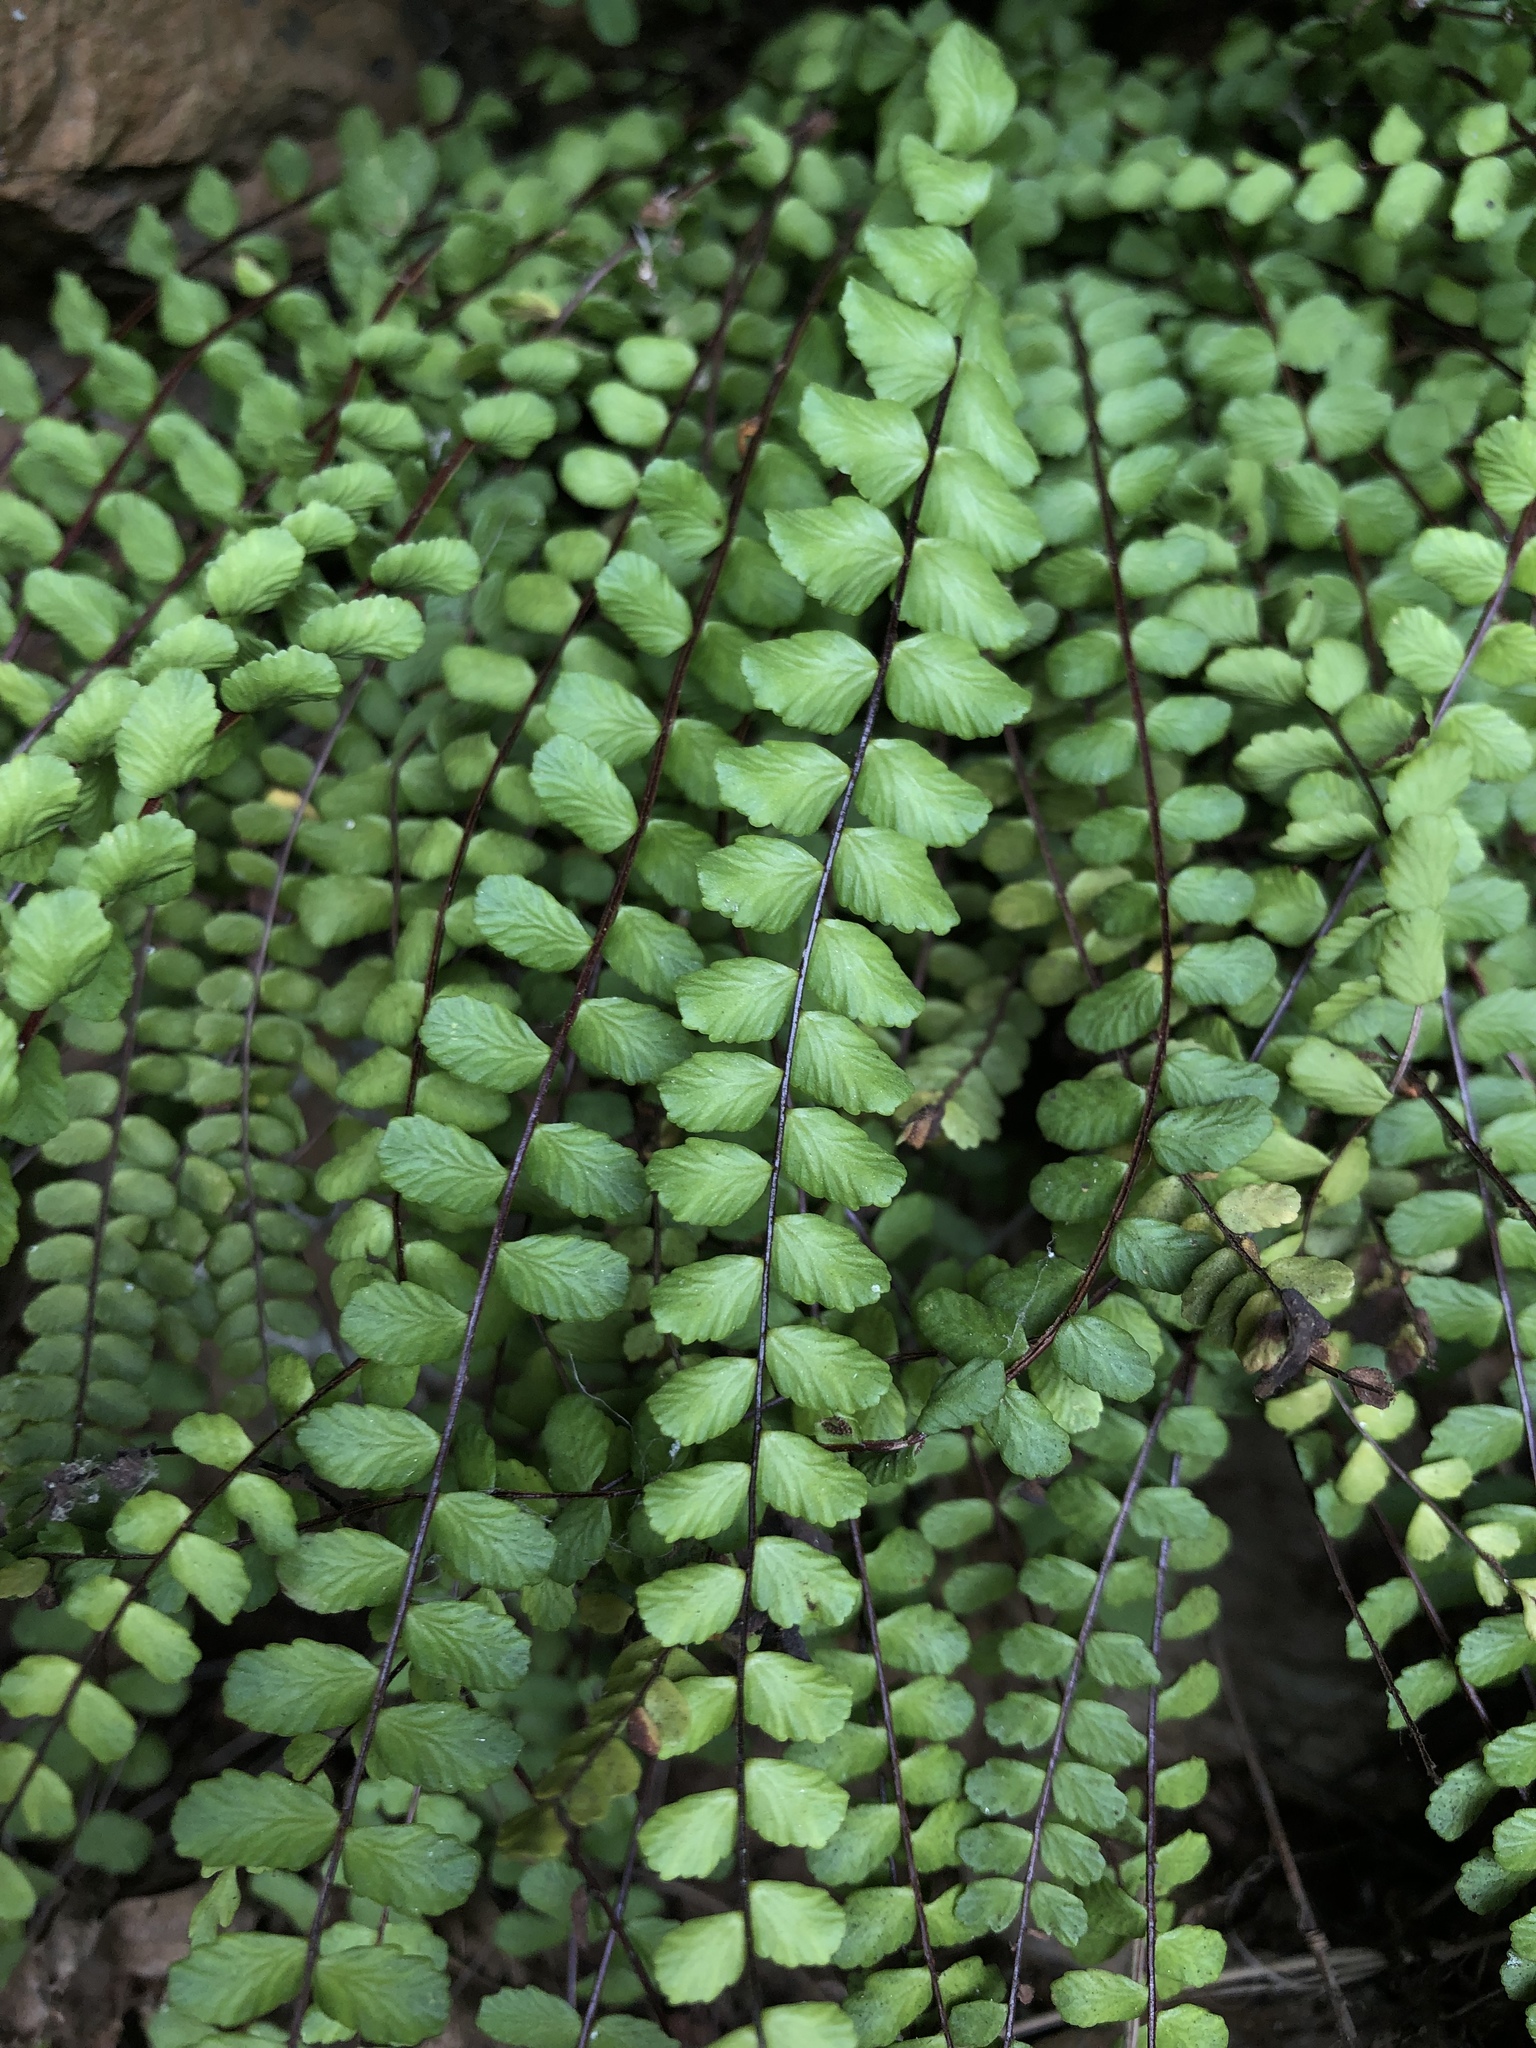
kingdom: Plantae
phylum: Tracheophyta
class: Polypodiopsida
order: Polypodiales
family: Aspleniaceae
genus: Asplenium
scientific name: Asplenium trichomanes
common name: Maidenhair spleenwort
